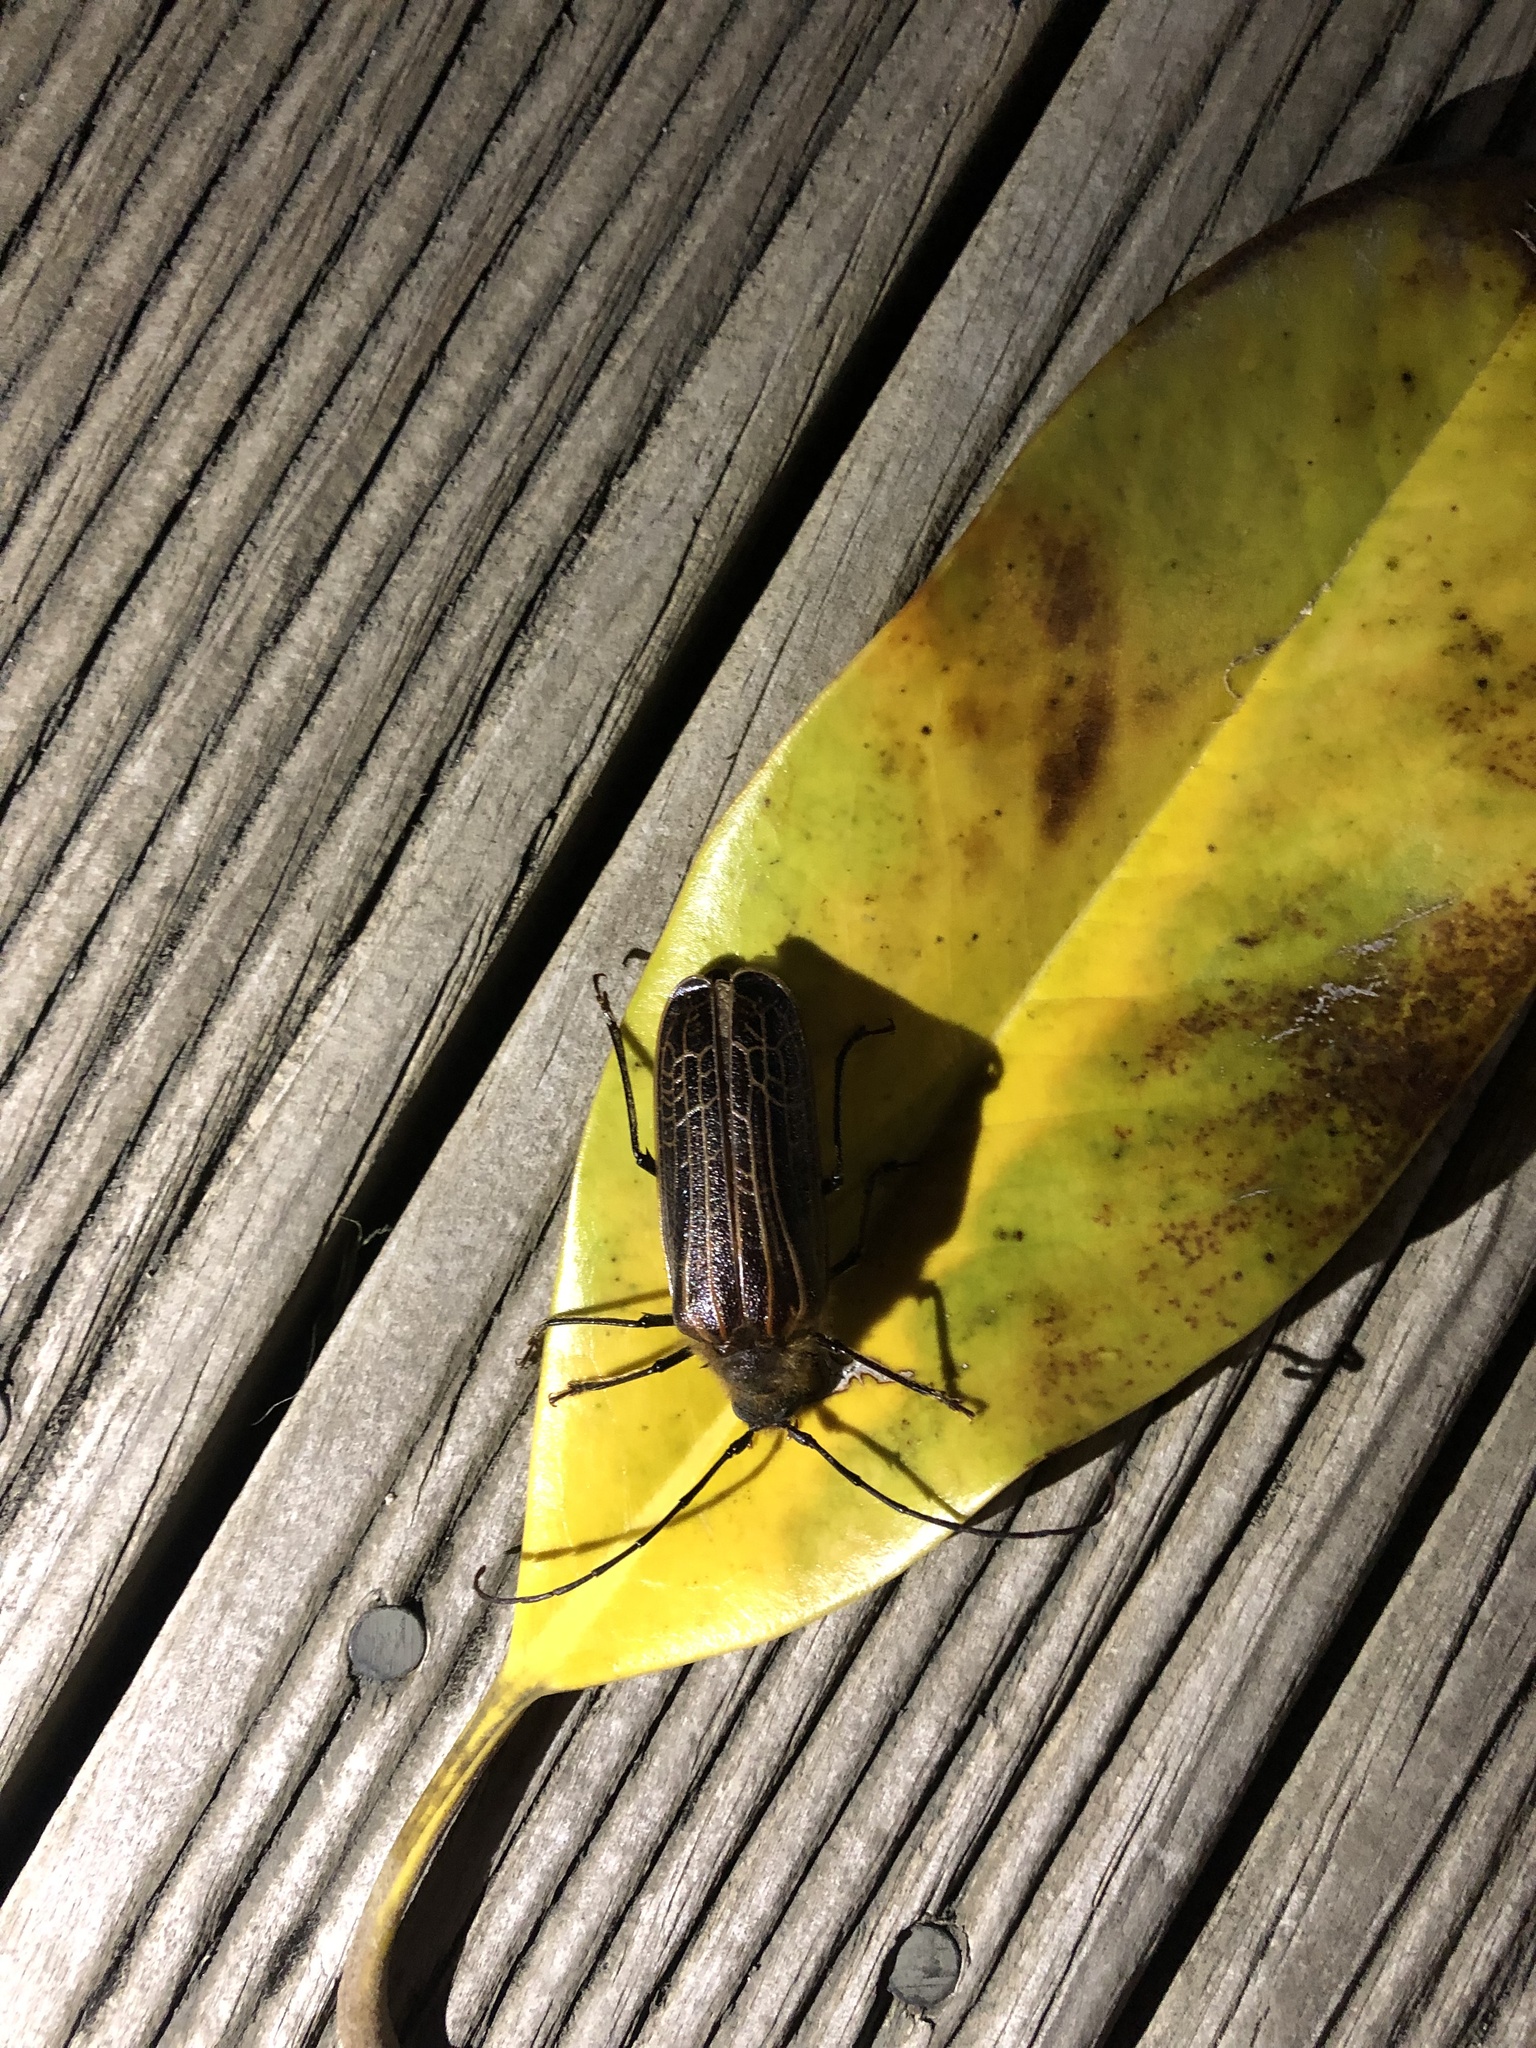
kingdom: Animalia
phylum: Arthropoda
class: Insecta
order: Coleoptera
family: Cerambycidae
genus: Prionoplus
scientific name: Prionoplus reticularis
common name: Huhu beetle
